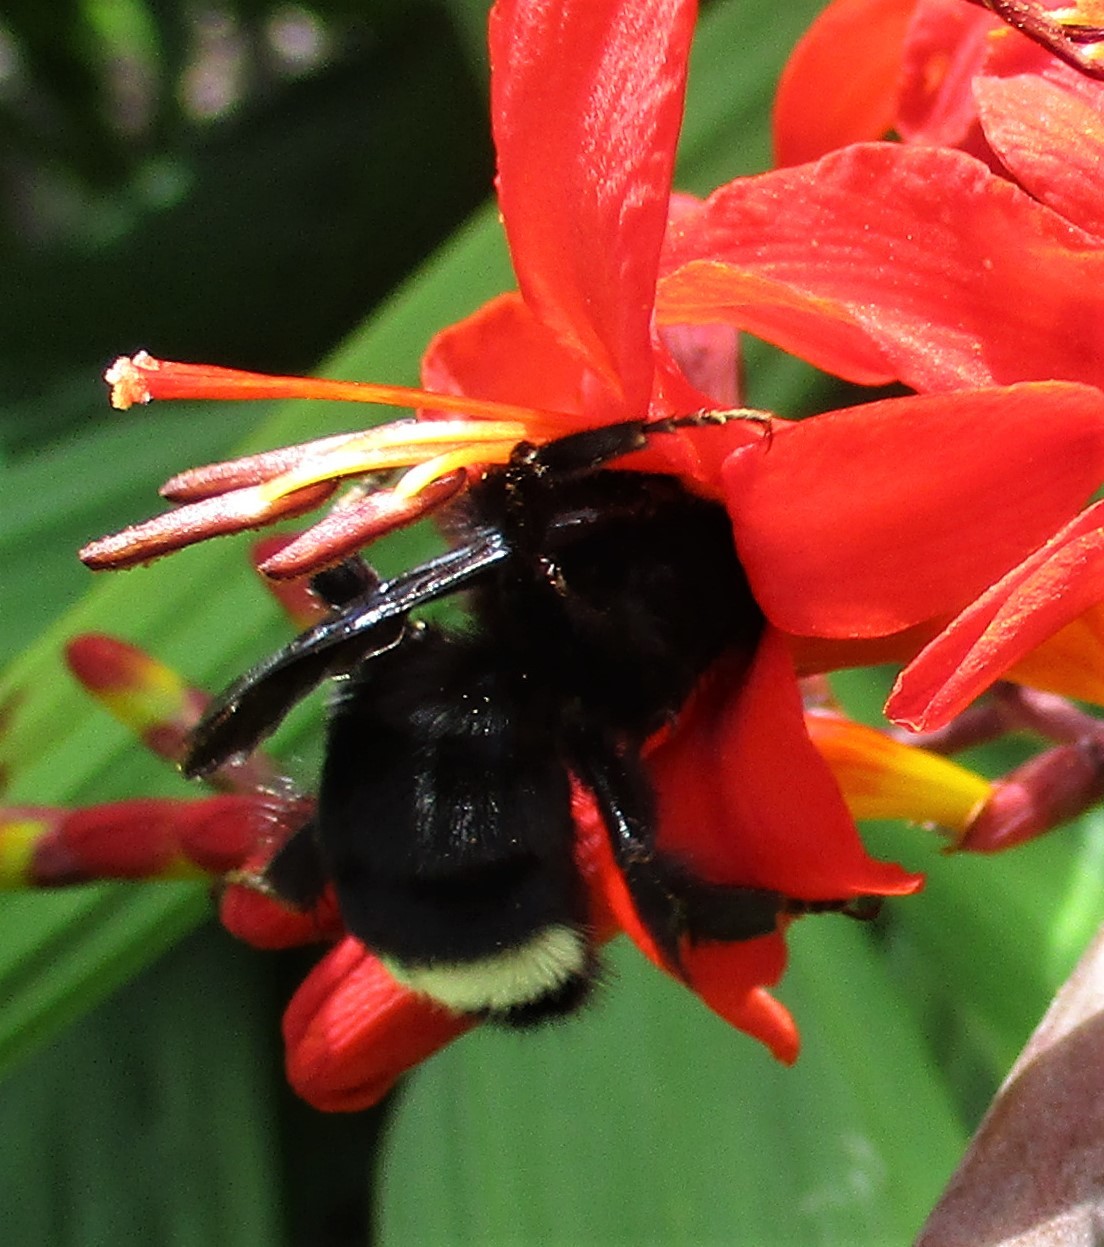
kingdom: Animalia
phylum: Arthropoda
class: Insecta
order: Hymenoptera
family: Apidae
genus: Bombus
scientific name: Bombus vosnesenskii
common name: Vosnesensky bumble bee
